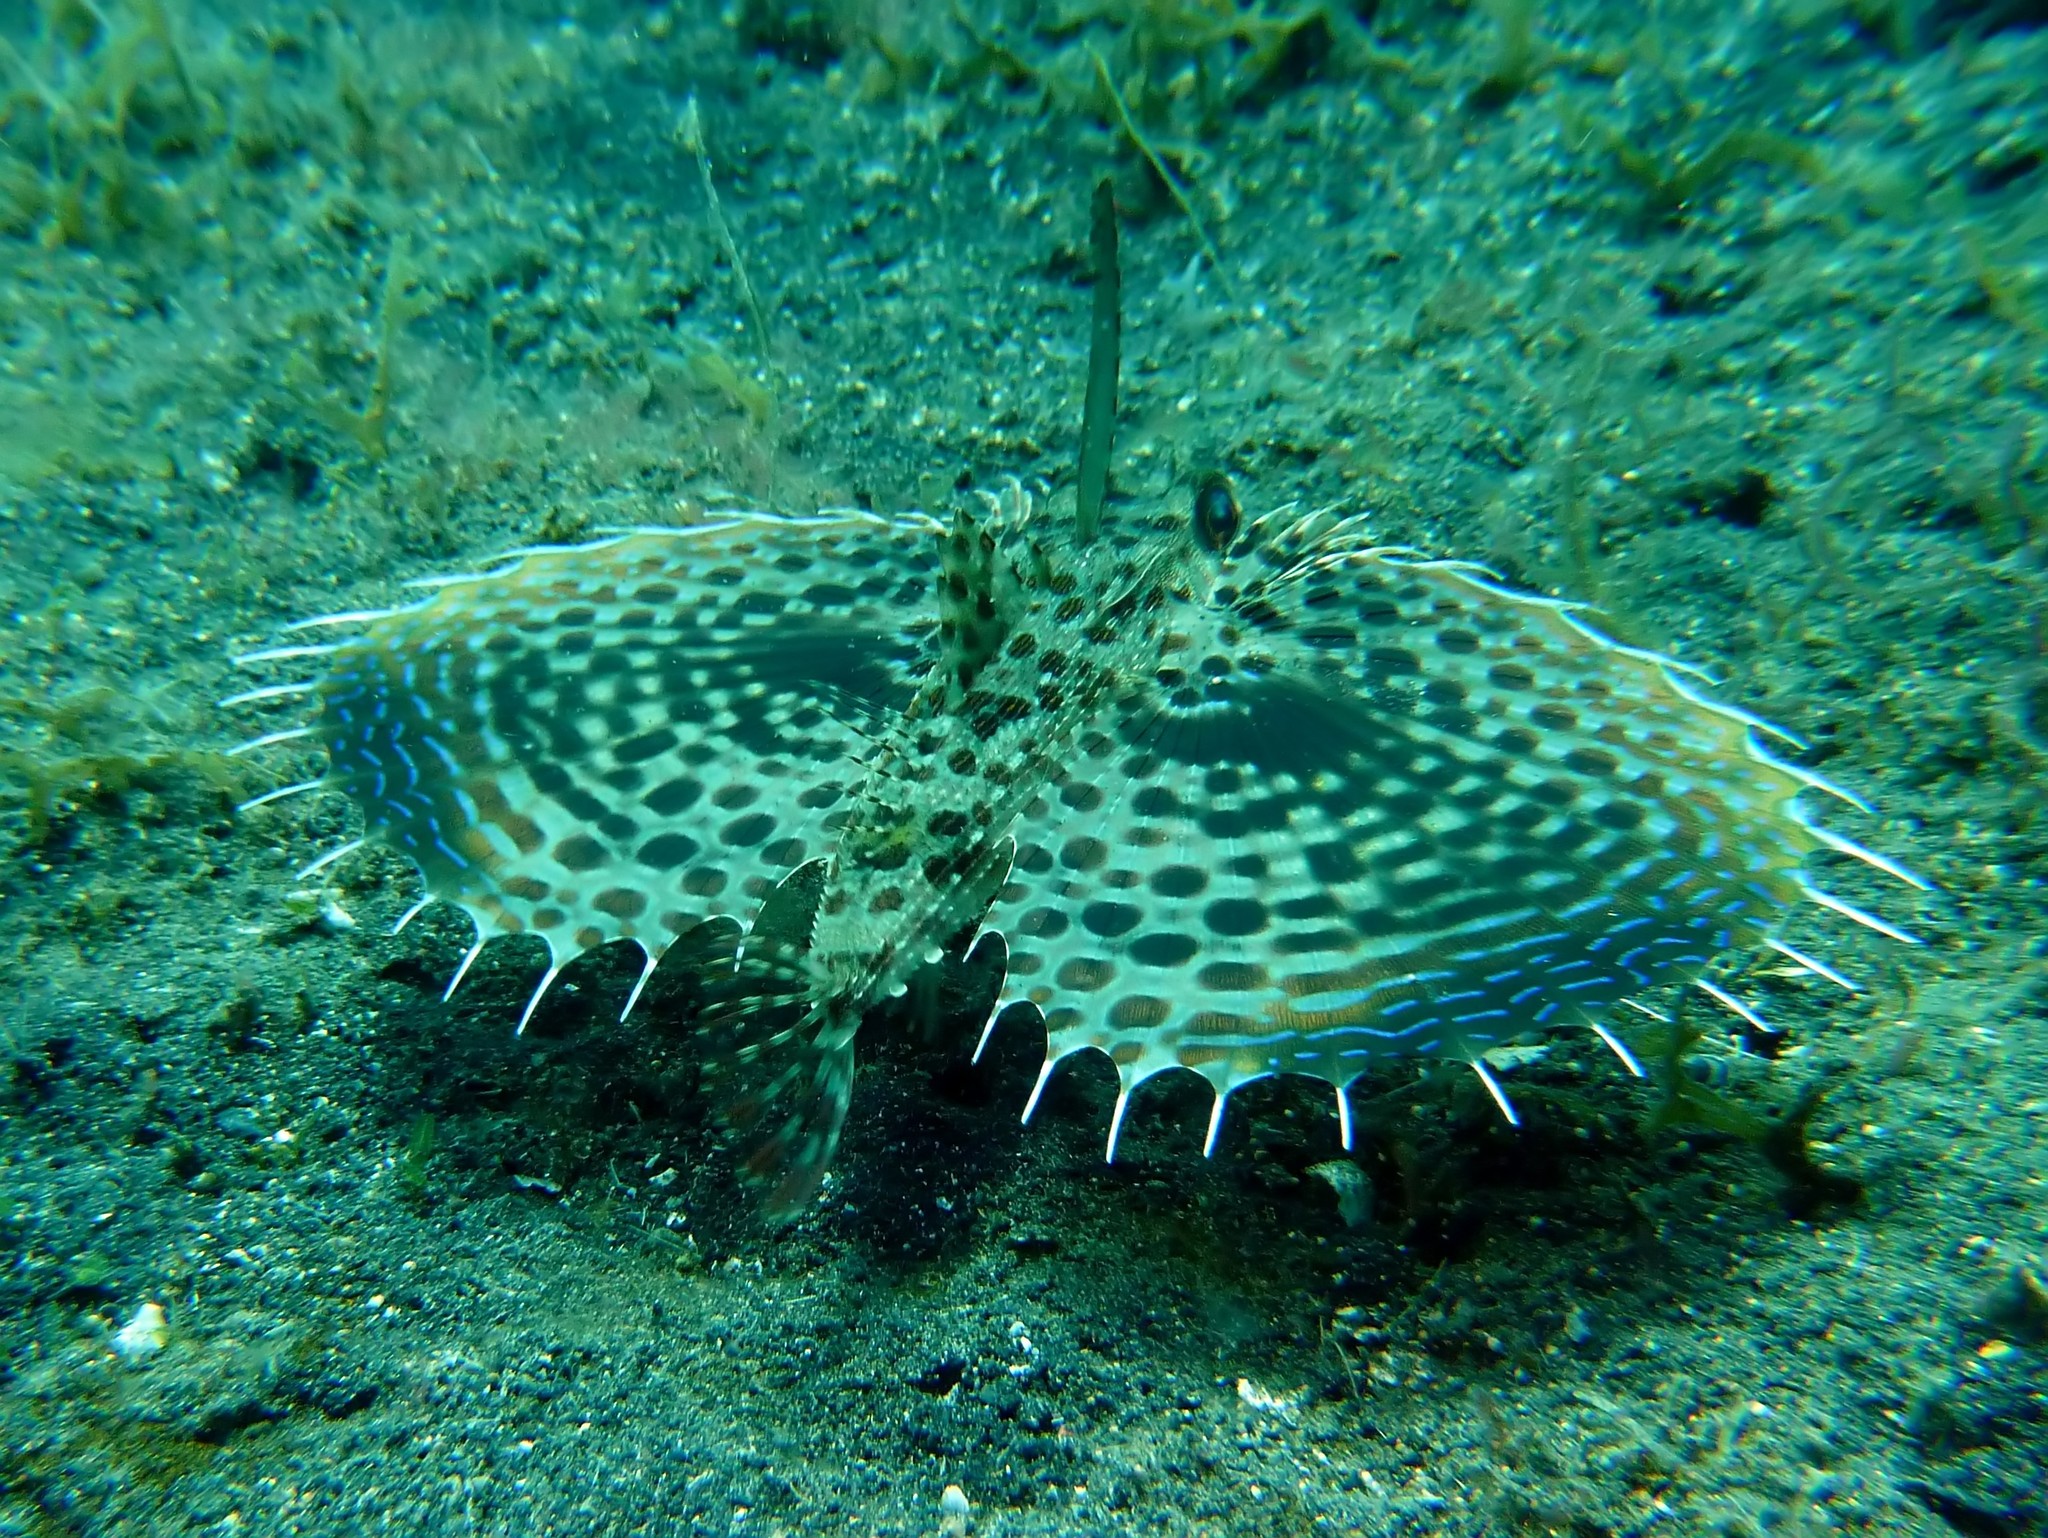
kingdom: Animalia
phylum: Chordata
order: Scorpaeniformes
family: Dactylopteridae
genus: Dactyloptena
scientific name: Dactyloptena orientalis
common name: Flying gurnard
